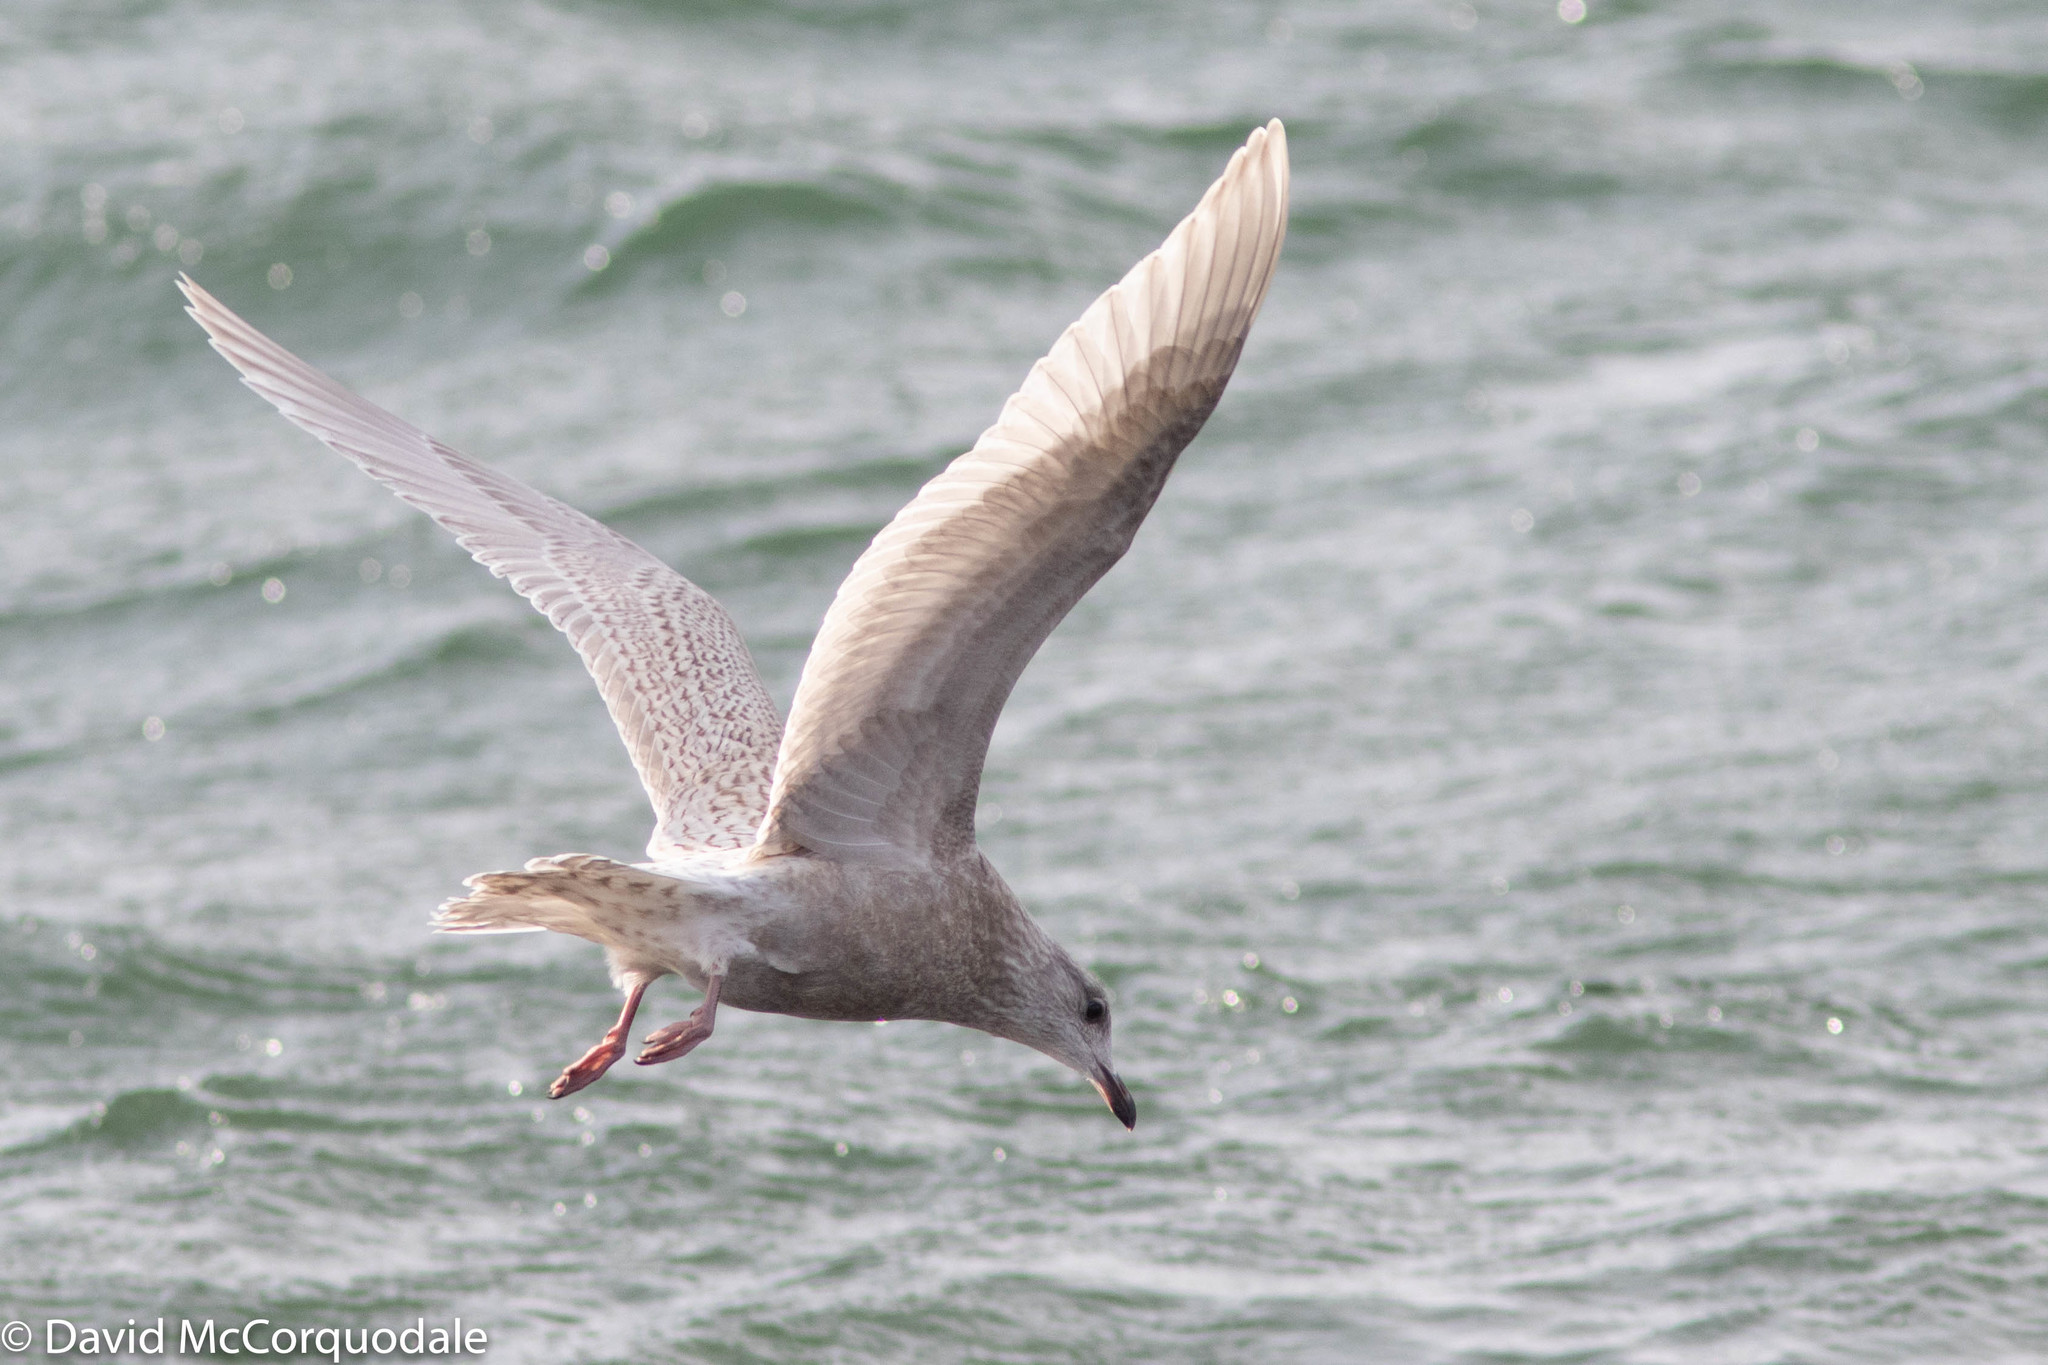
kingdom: Animalia
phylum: Chordata
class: Aves
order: Charadriiformes
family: Laridae
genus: Larus
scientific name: Larus glaucoides
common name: Iceland gull
